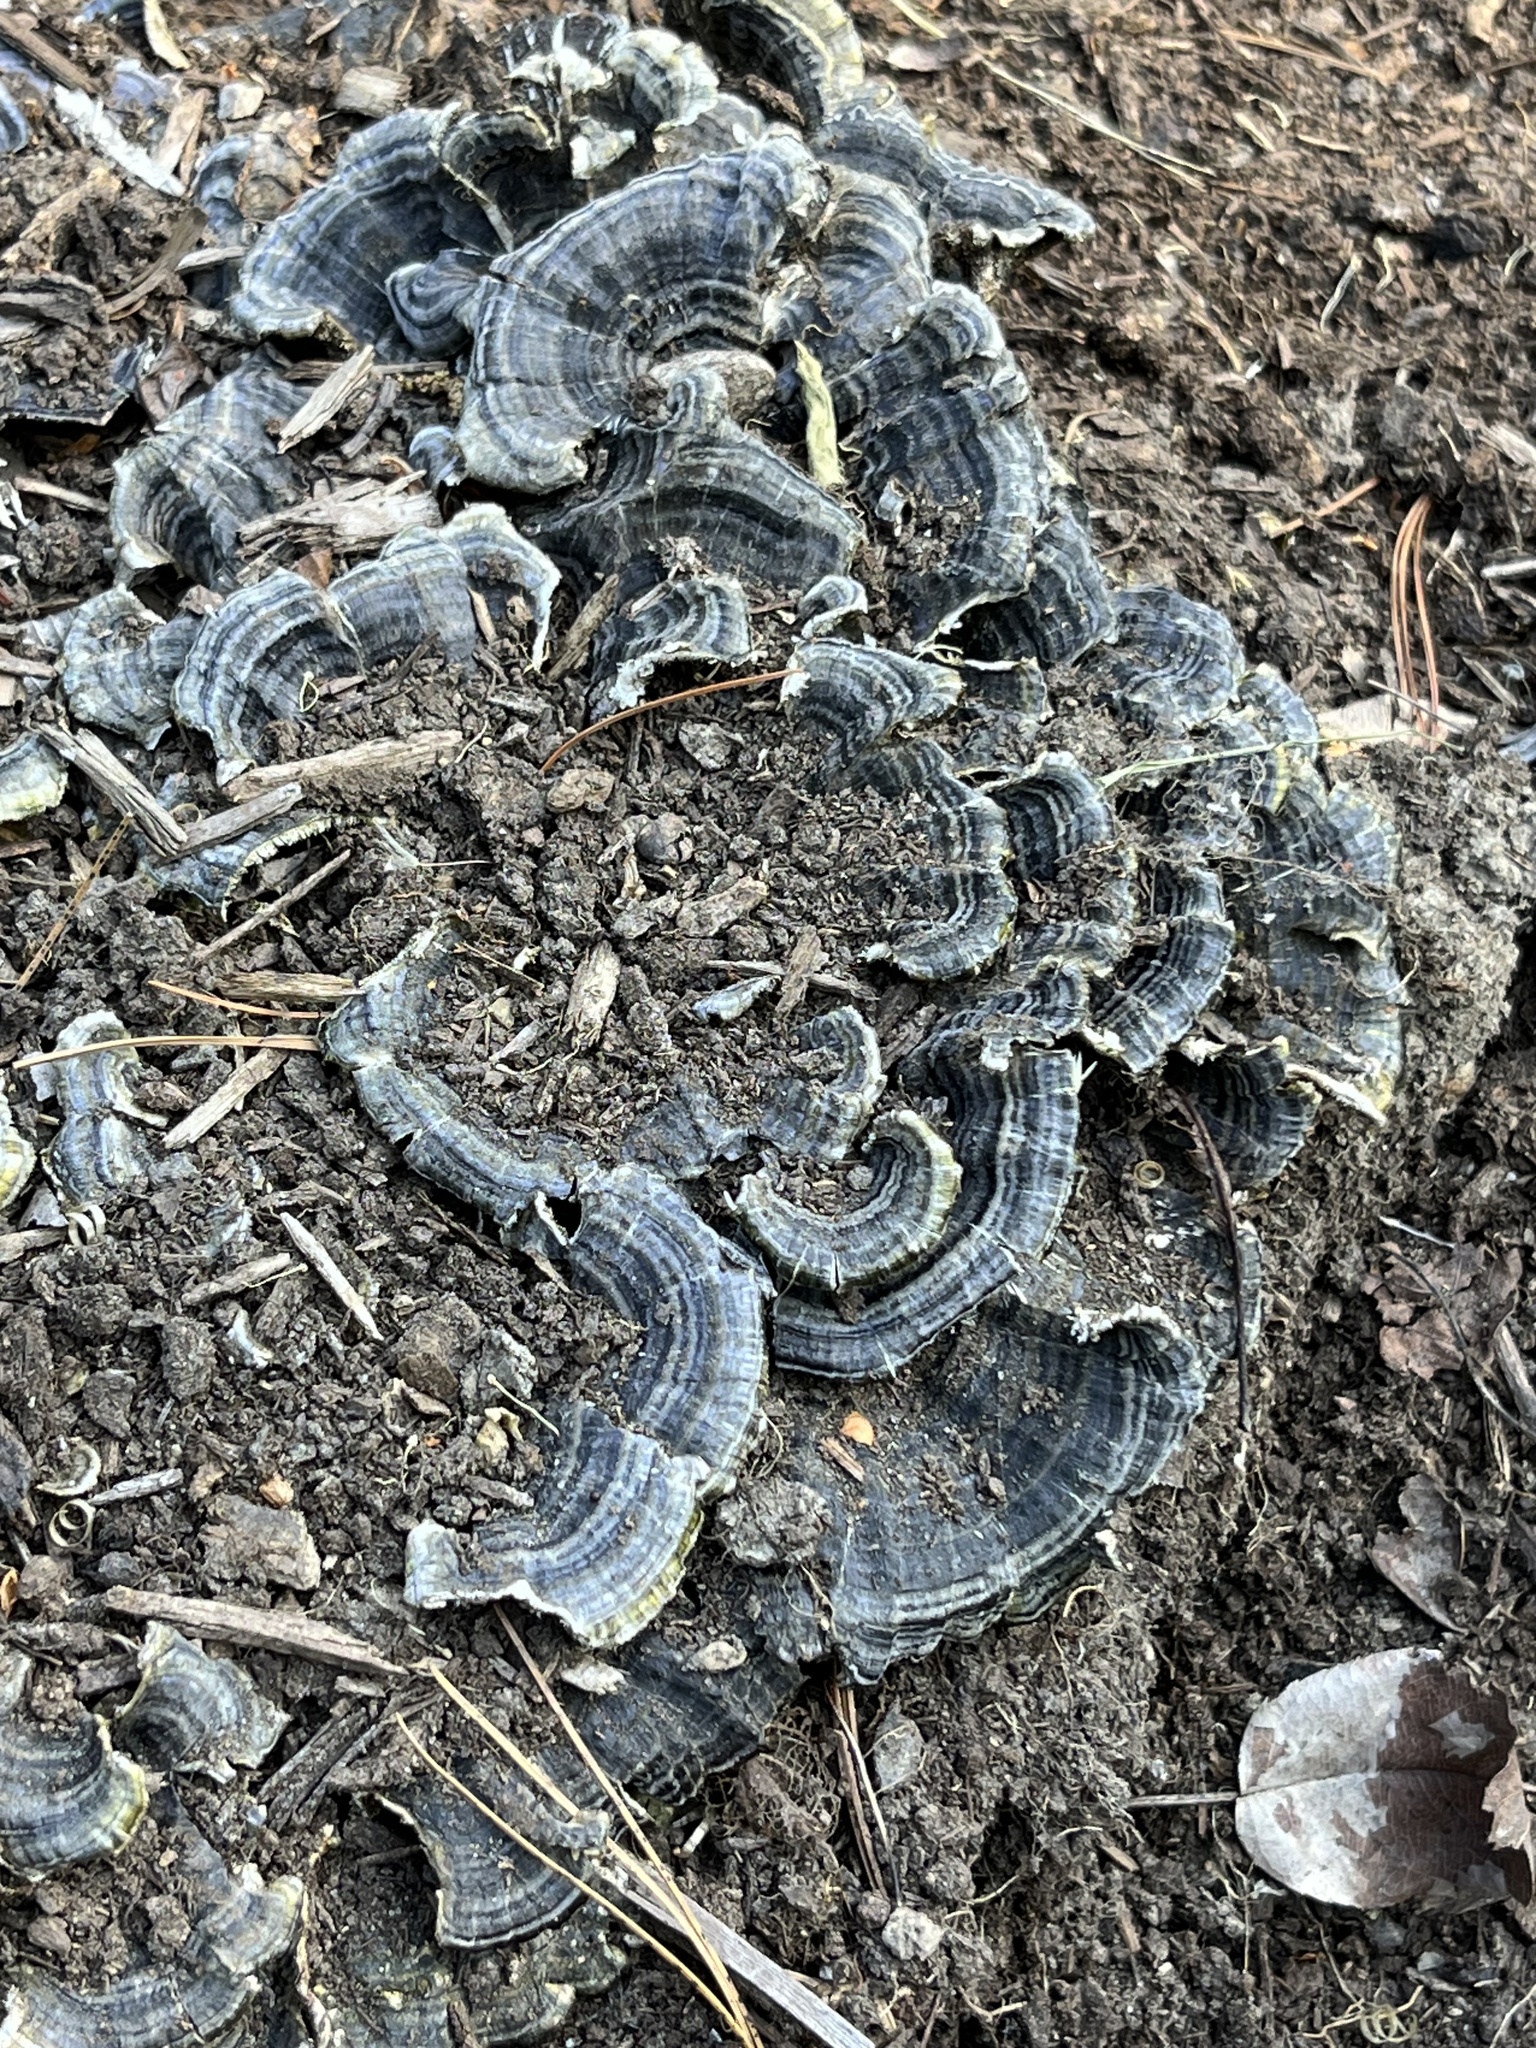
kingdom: Fungi
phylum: Basidiomycota
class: Agaricomycetes
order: Polyporales
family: Polyporaceae
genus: Trametes
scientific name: Trametes versicolor
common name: Turkeytail
